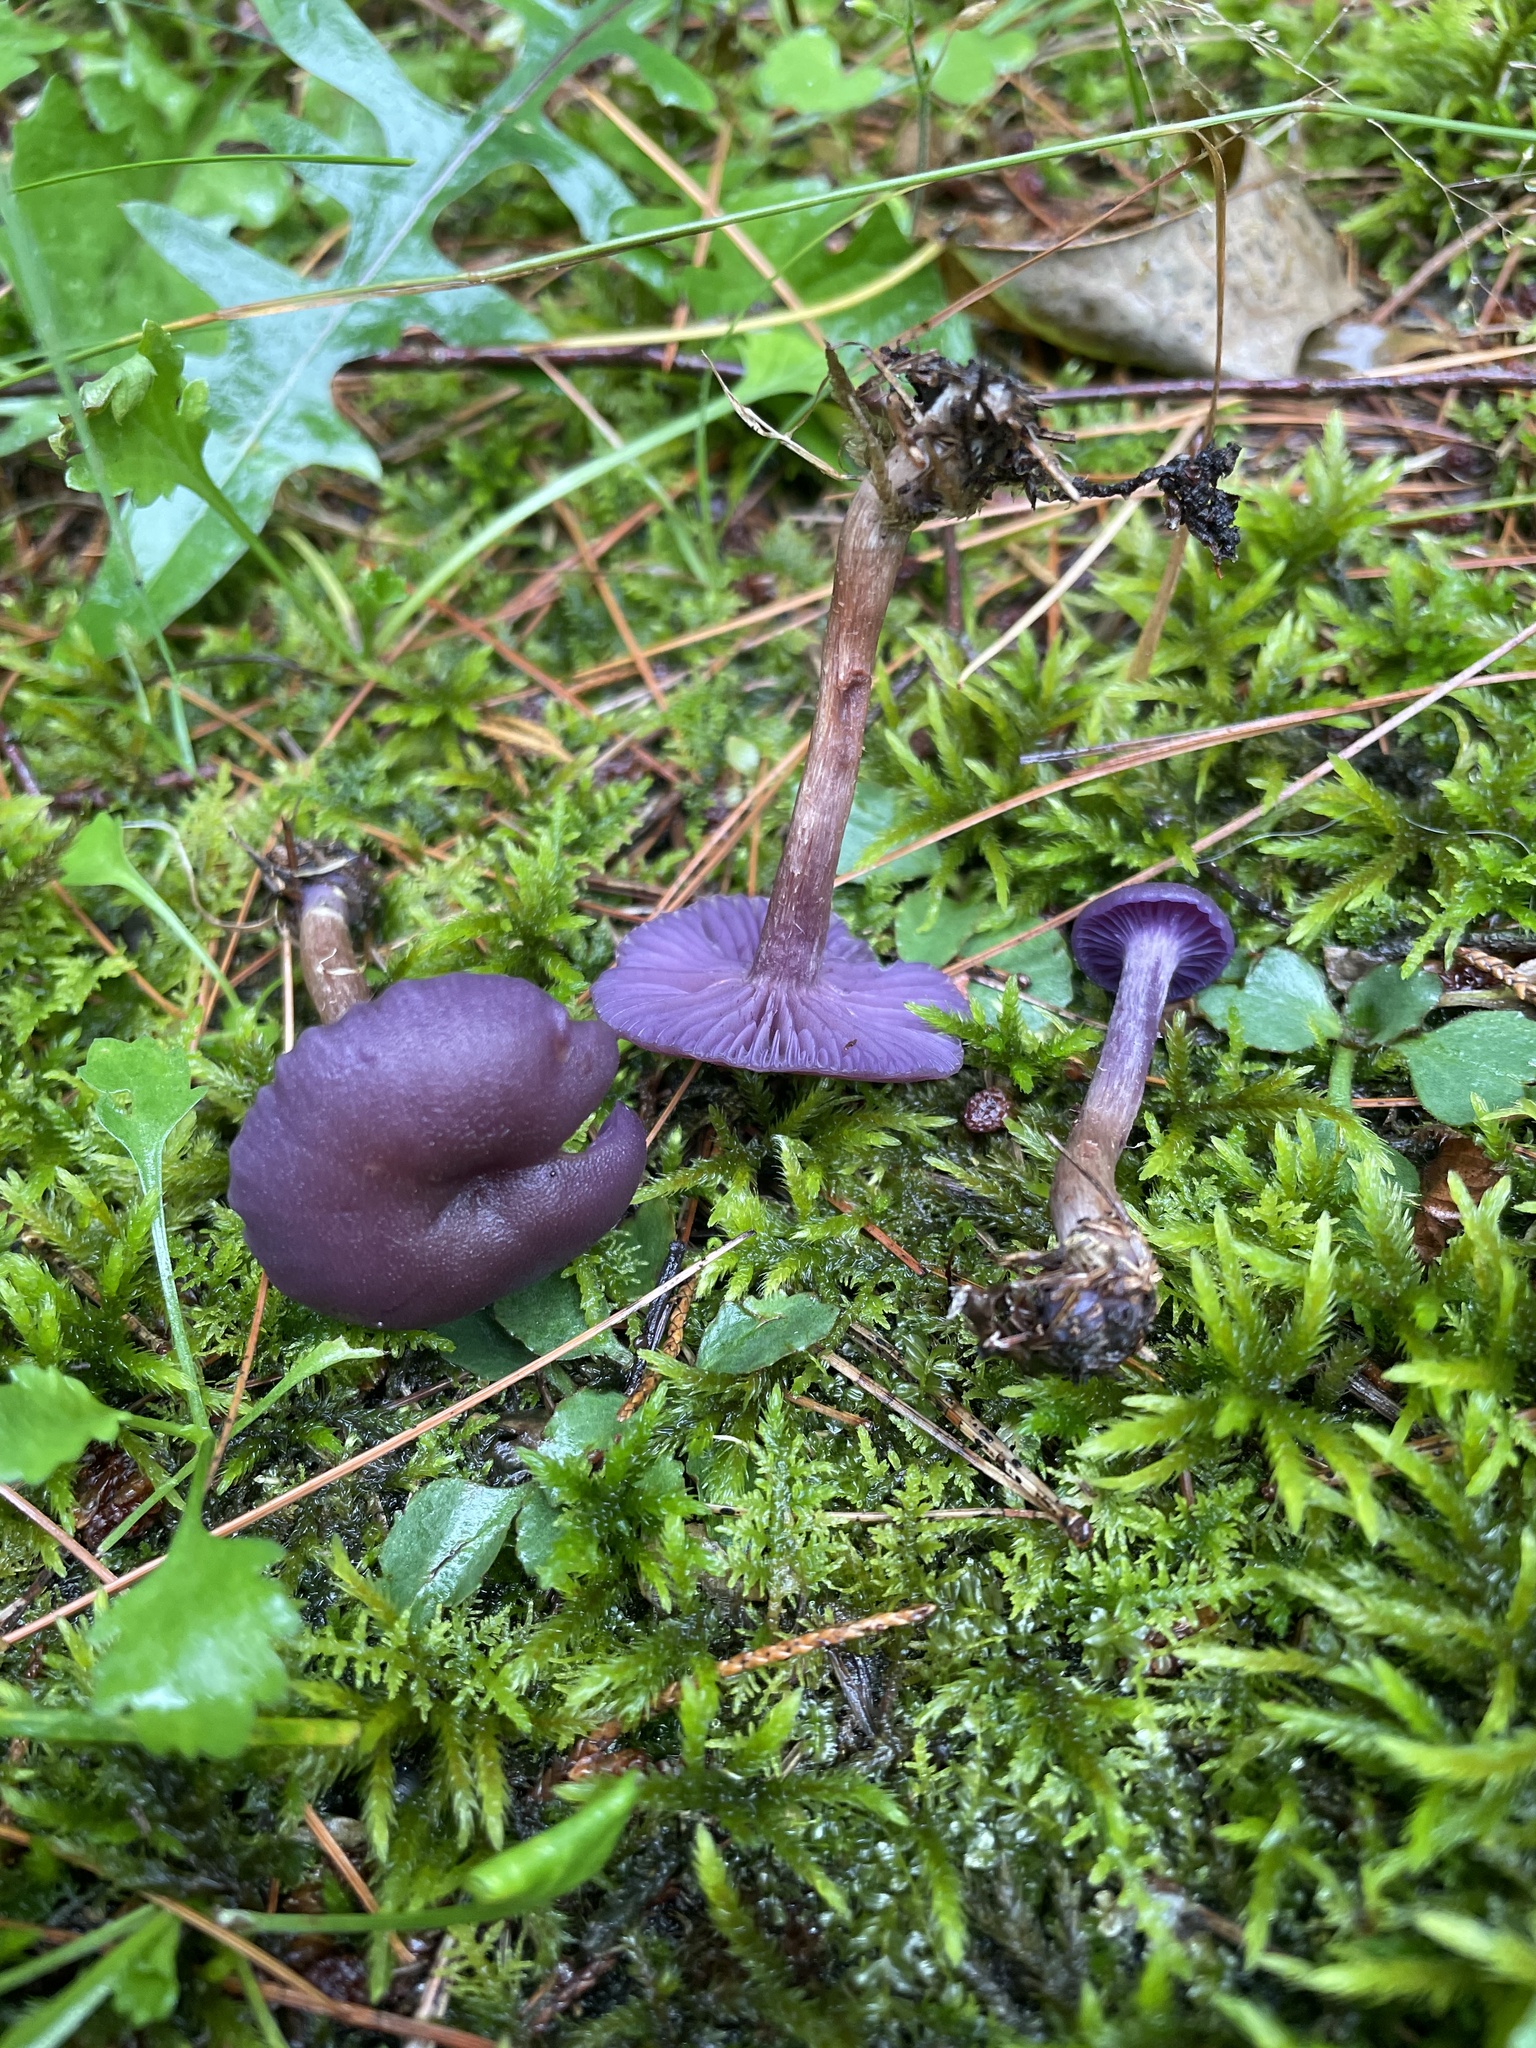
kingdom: Fungi
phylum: Basidiomycota
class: Agaricomycetes
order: Agaricales
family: Hydnangiaceae
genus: Laccaria
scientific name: Laccaria amethystina
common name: Amethyst deceiver
